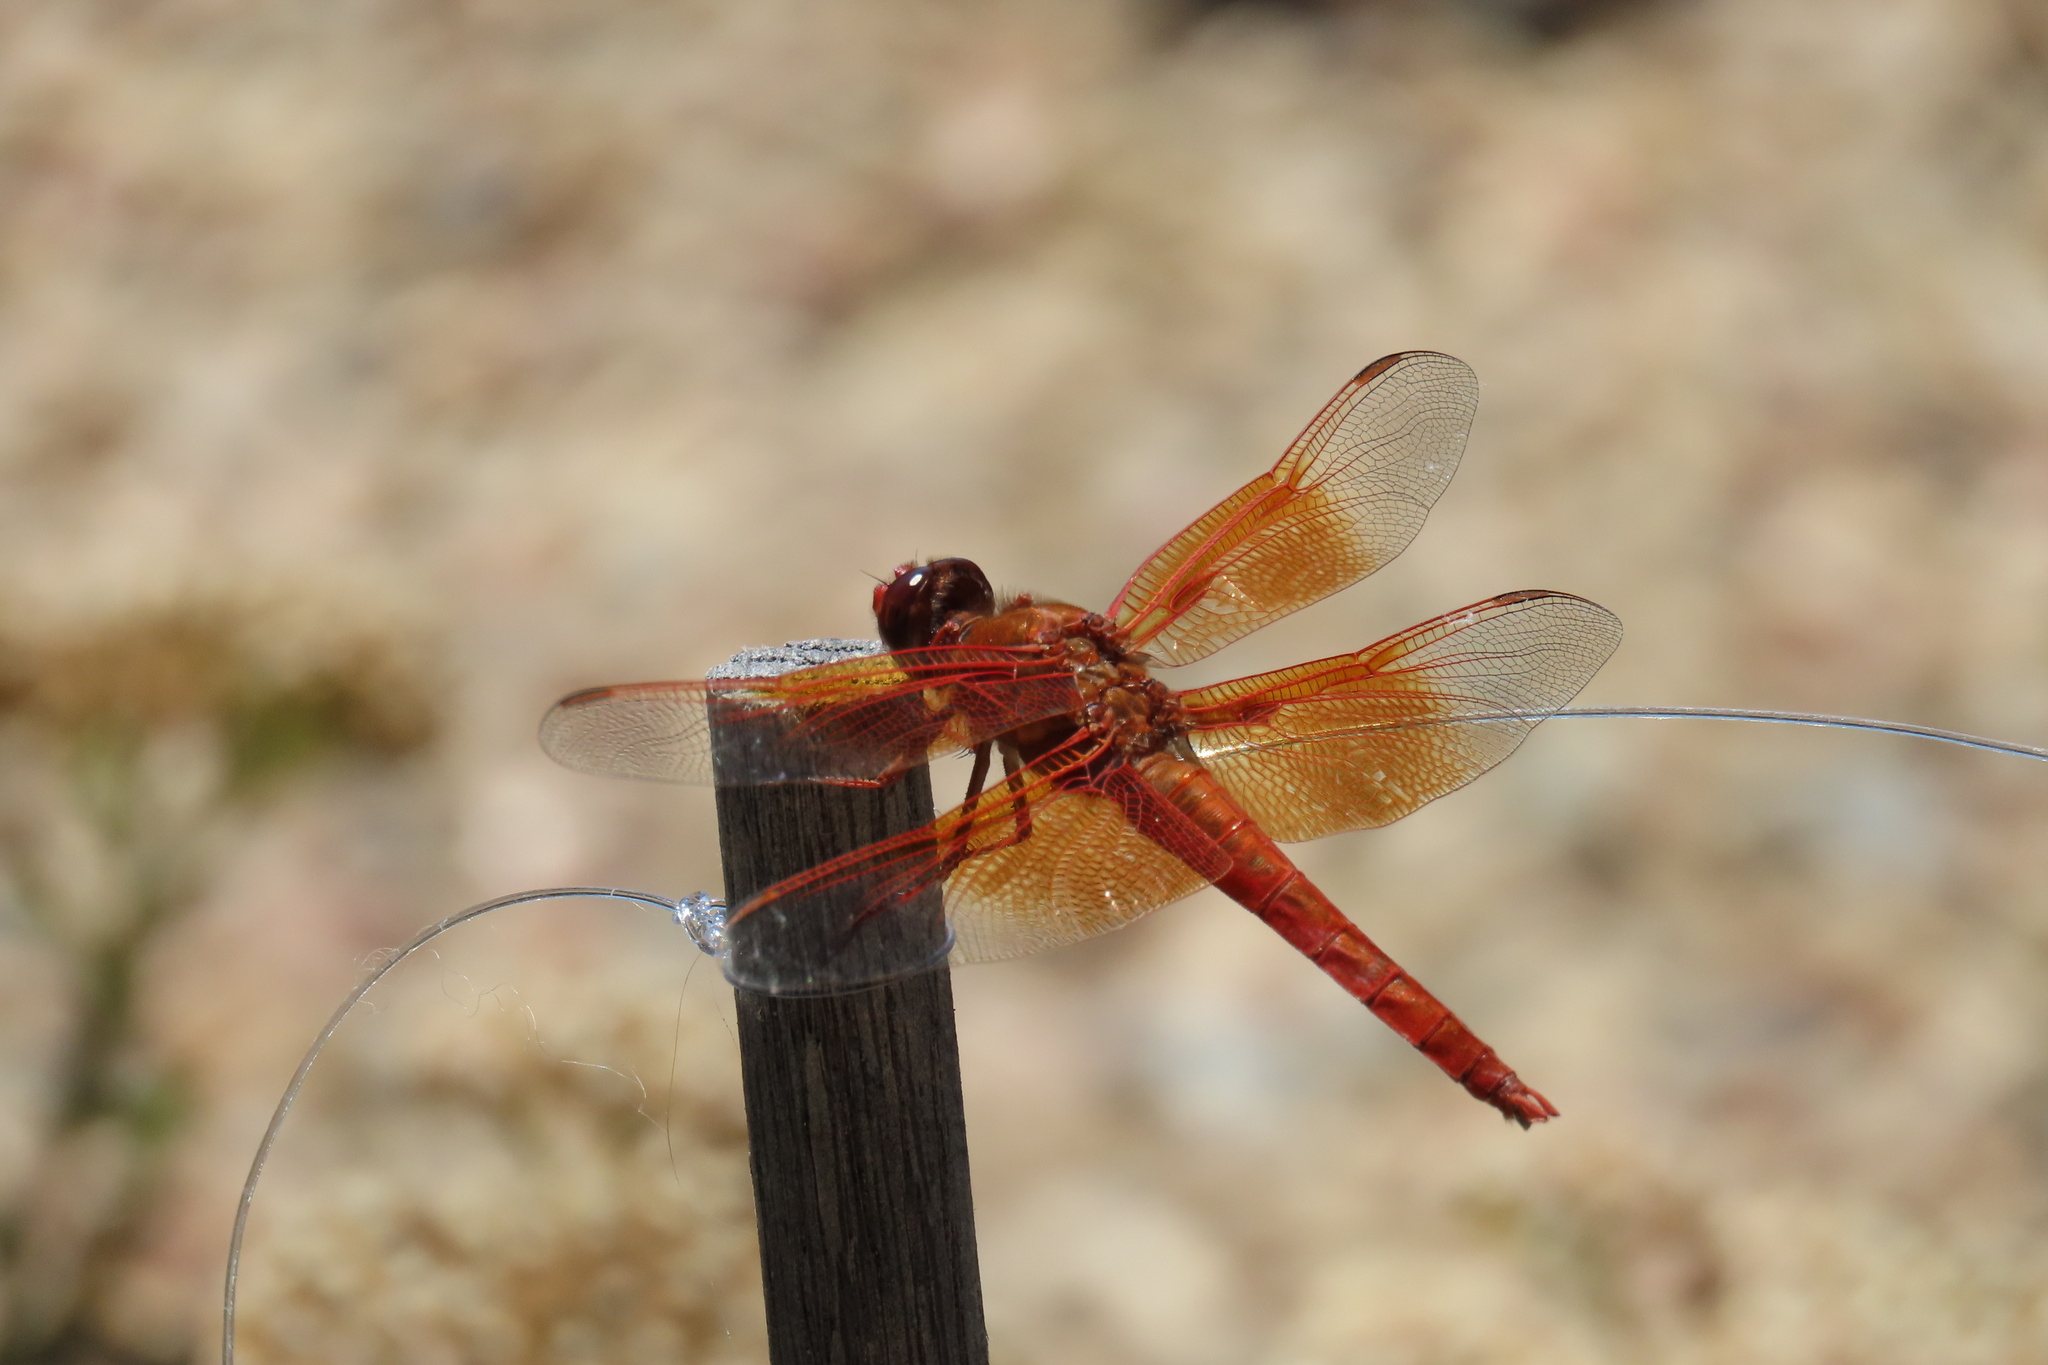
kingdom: Animalia
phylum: Arthropoda
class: Insecta
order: Odonata
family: Libellulidae
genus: Libellula
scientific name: Libellula saturata
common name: Flame skimmer
